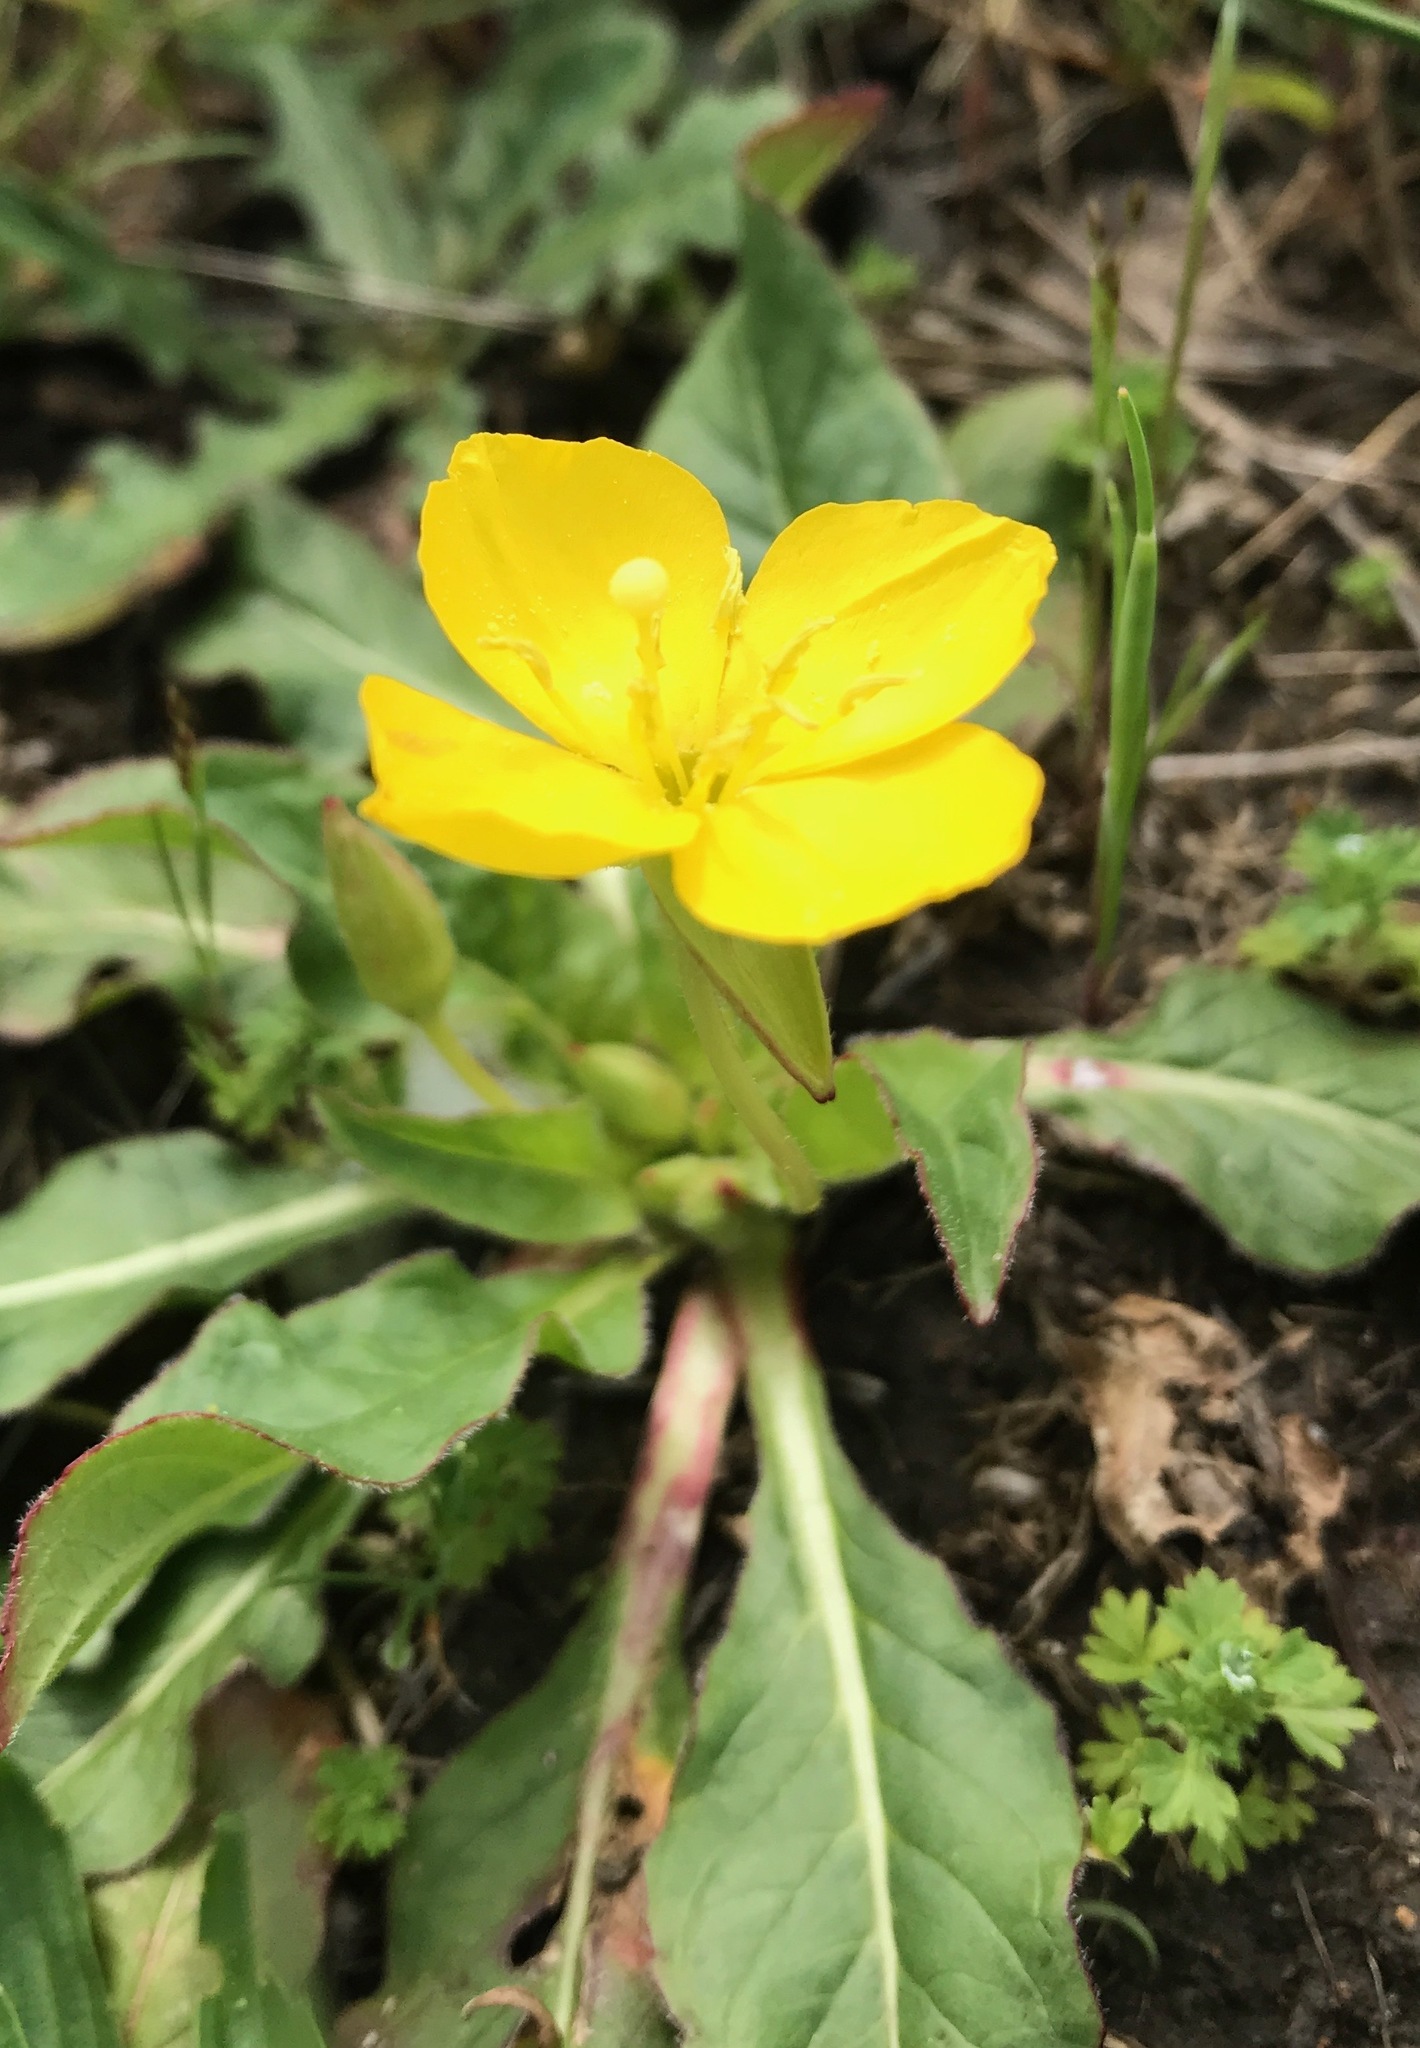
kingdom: Plantae
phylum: Tracheophyta
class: Magnoliopsida
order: Myrtales
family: Onagraceae
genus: Taraxia
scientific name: Taraxia ovata
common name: Goldeneggs
